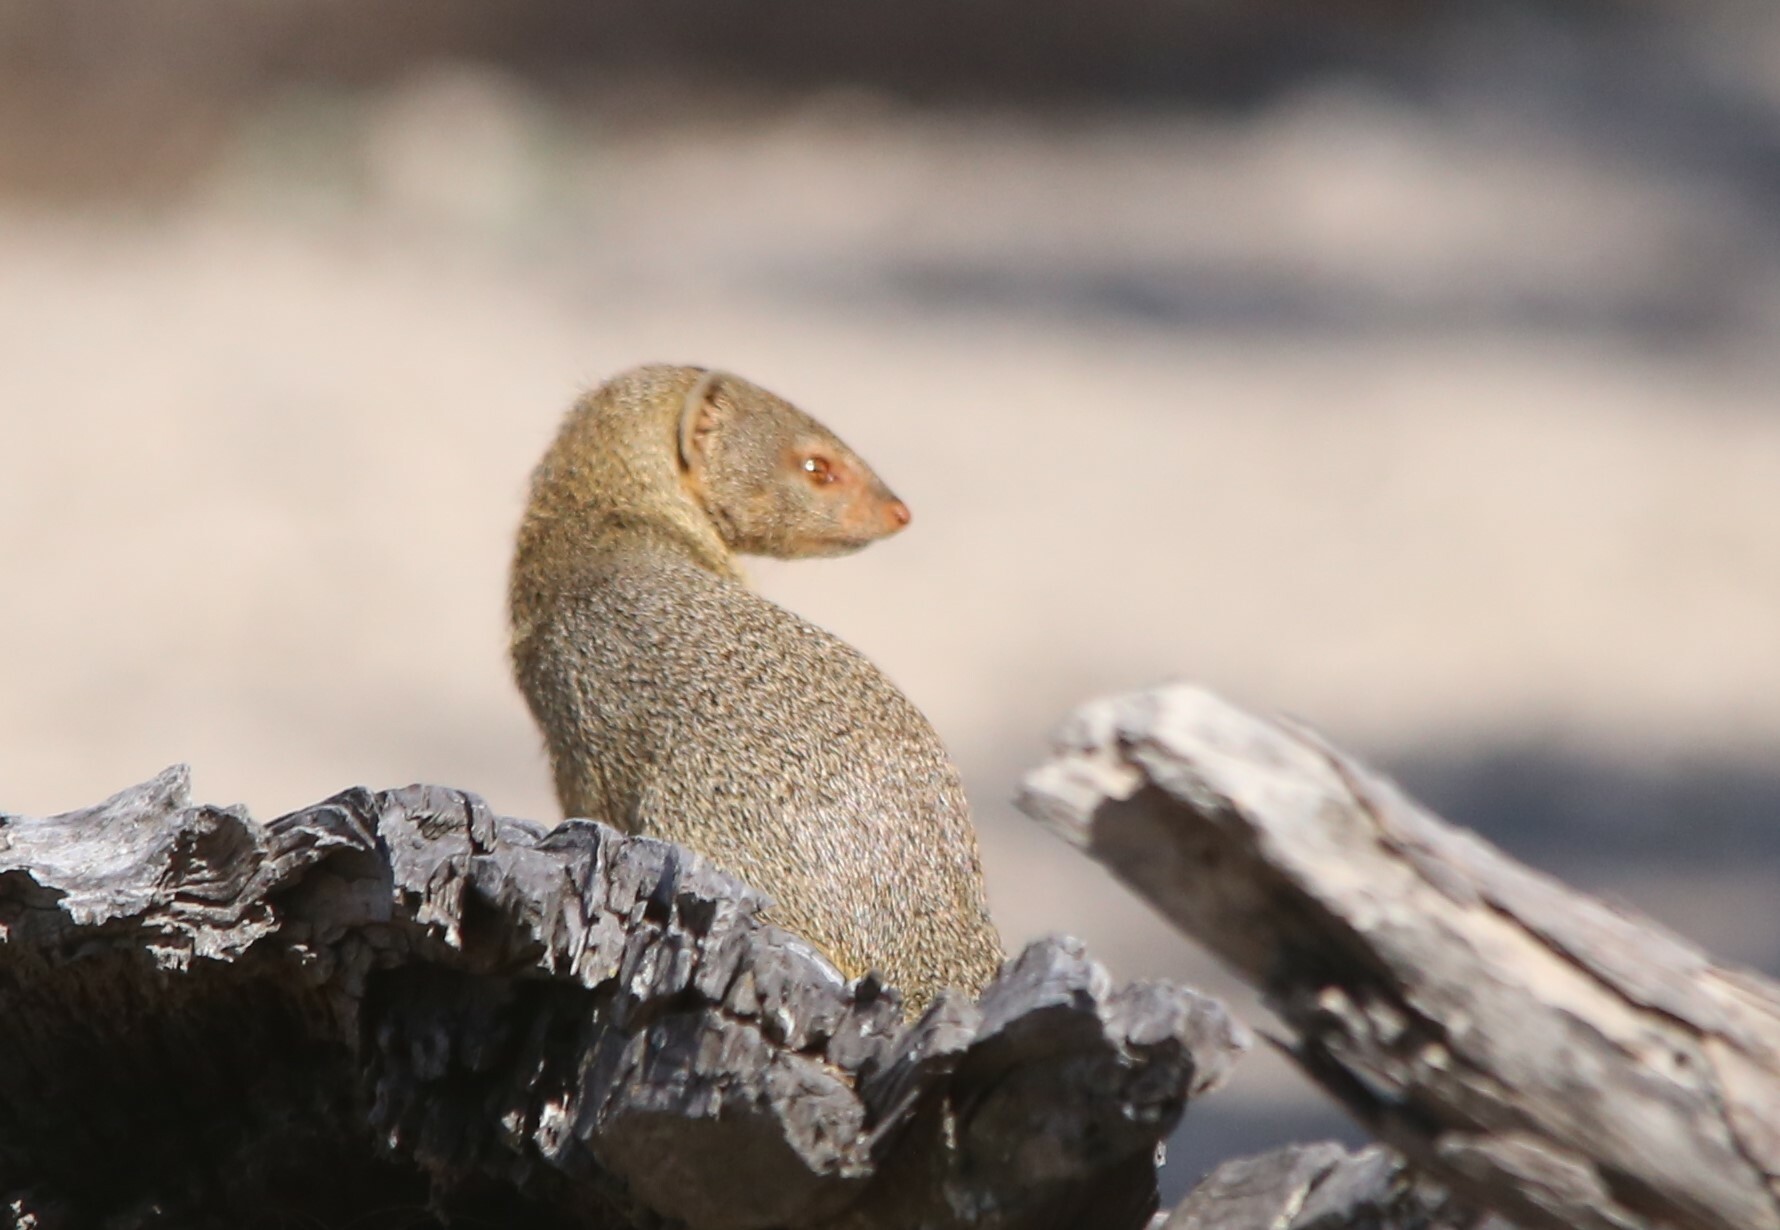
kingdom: Animalia
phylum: Chordata
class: Mammalia
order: Carnivora
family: Herpestidae
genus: Galerella
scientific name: Galerella sanguinea
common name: Slender mongoose
